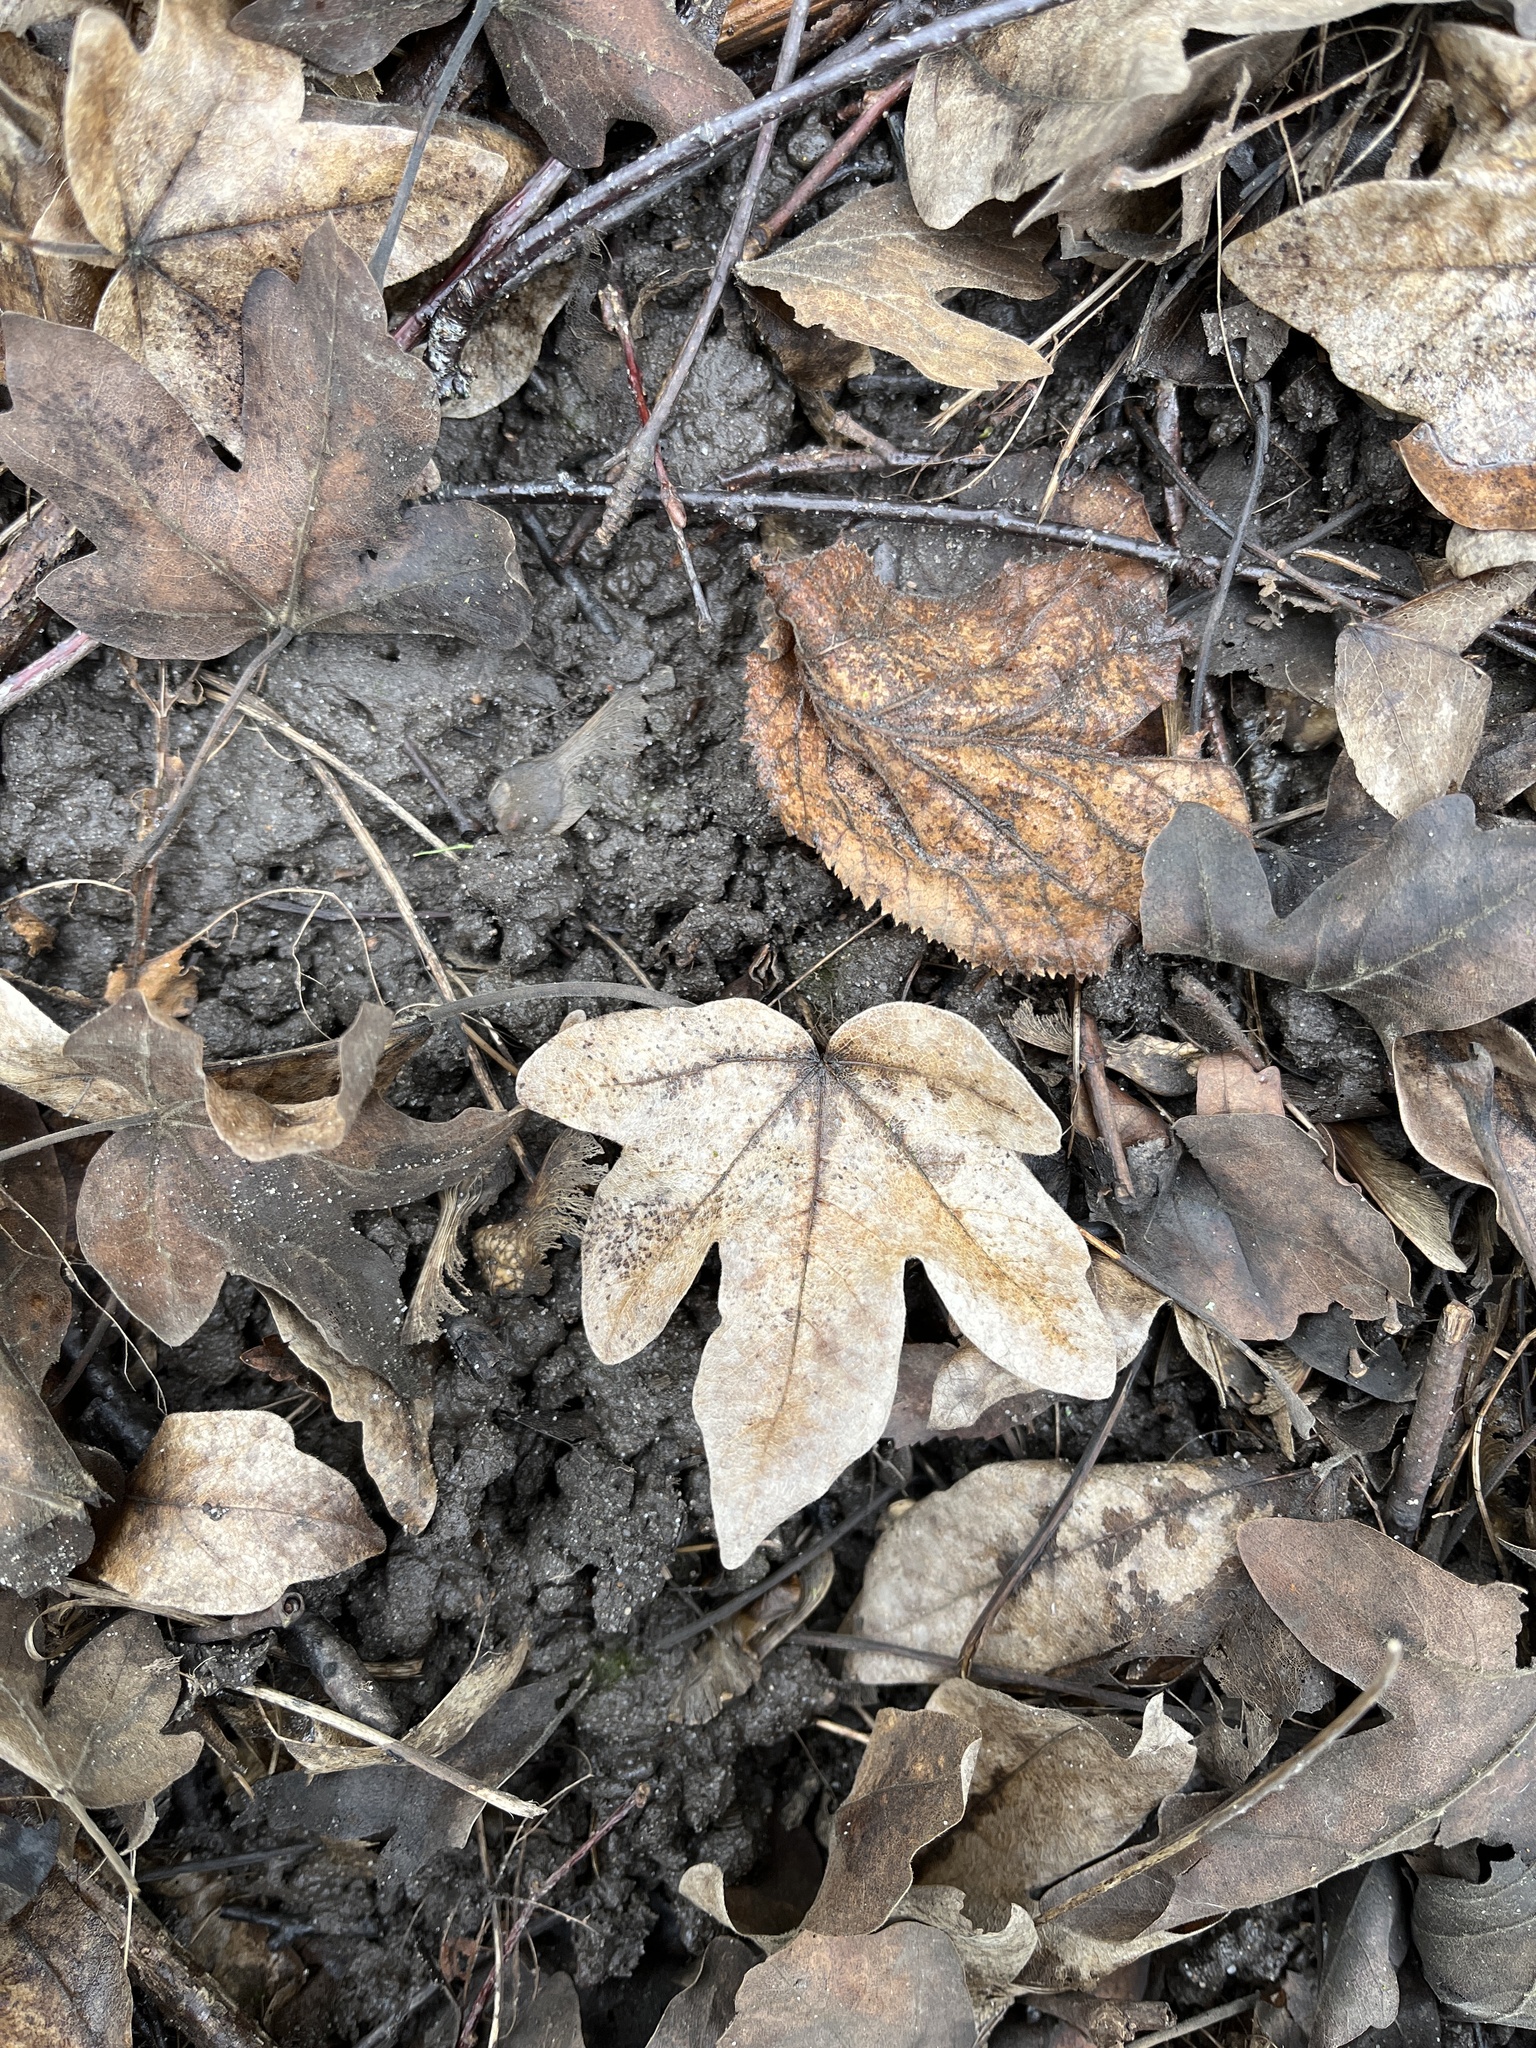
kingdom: Plantae
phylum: Tracheophyta
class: Magnoliopsida
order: Sapindales
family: Sapindaceae
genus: Acer
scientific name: Acer campestre
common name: Field maple
